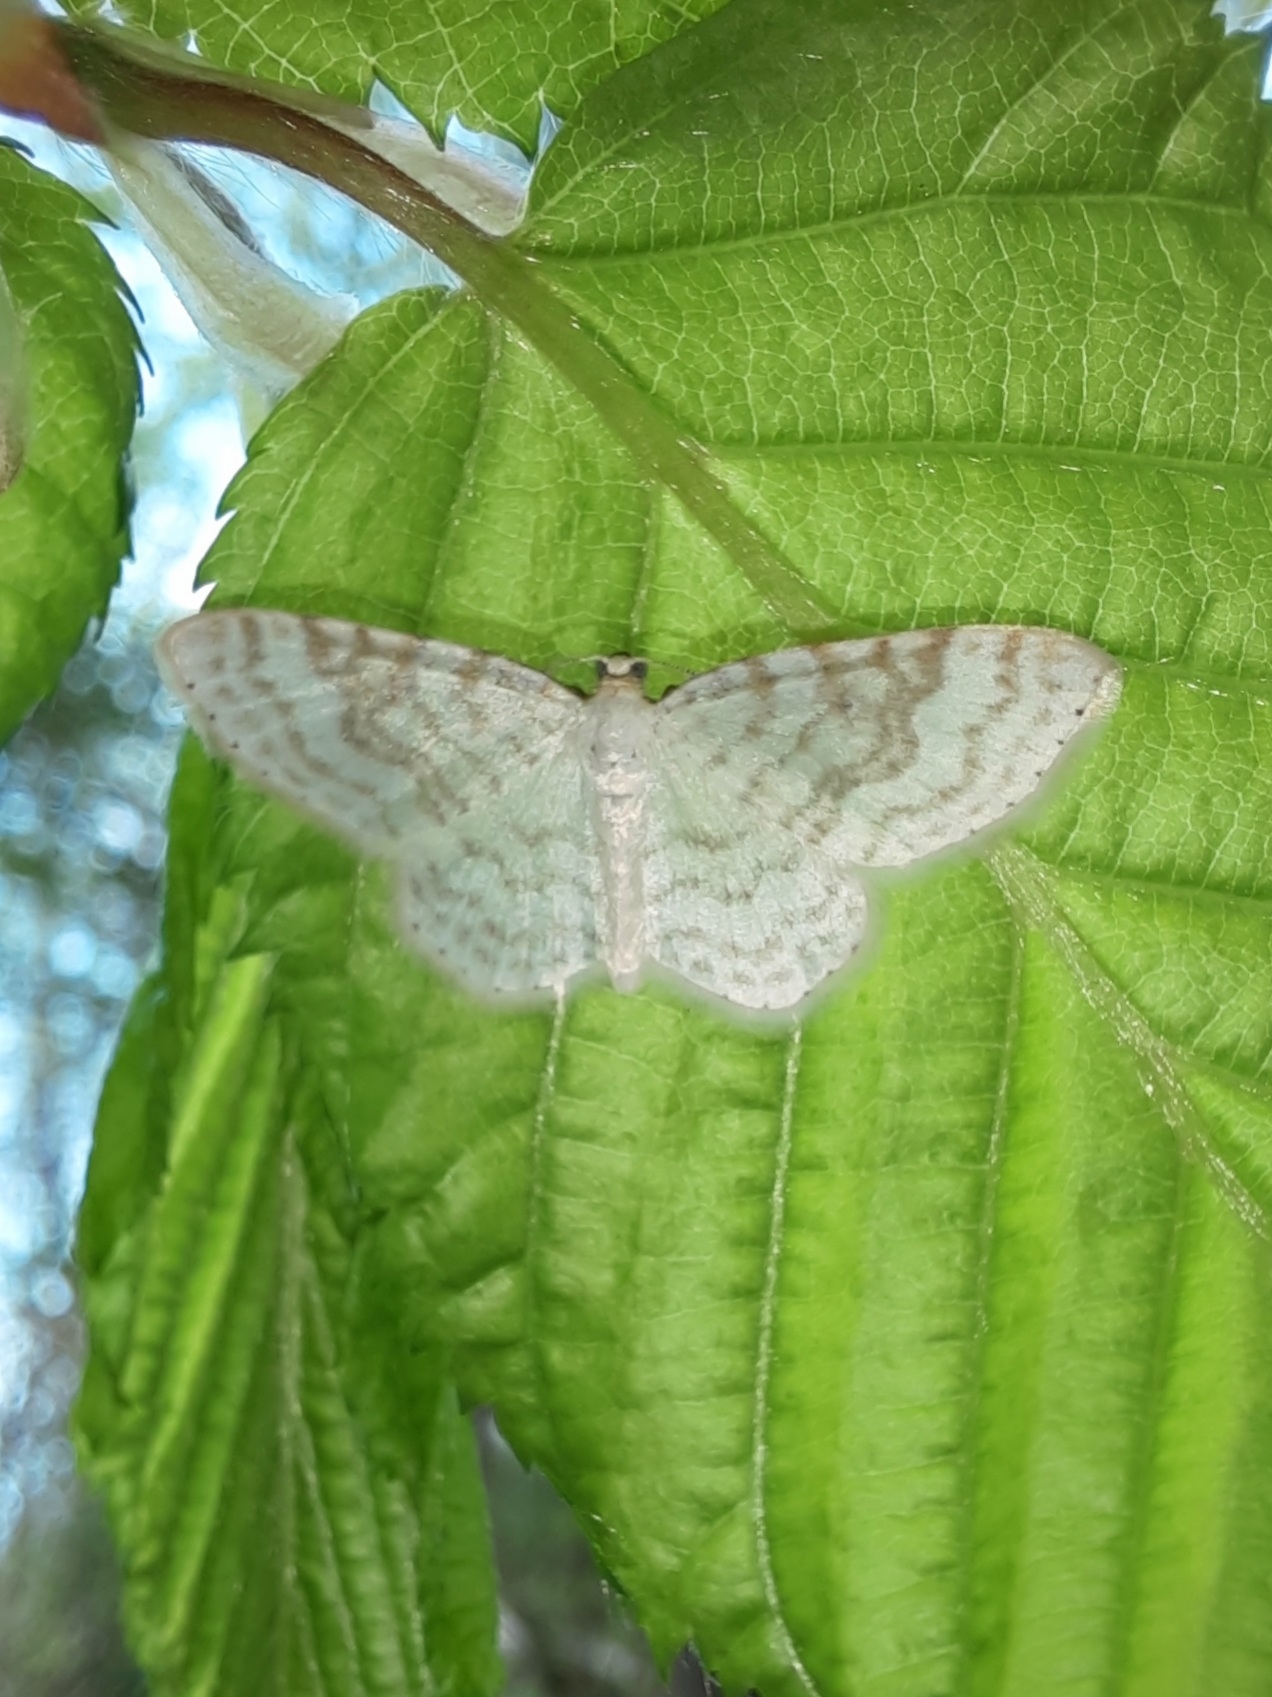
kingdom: Animalia
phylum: Arthropoda
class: Insecta
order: Lepidoptera
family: Geometridae
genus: Asthena
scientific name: Asthena albulata
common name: Small white wave
